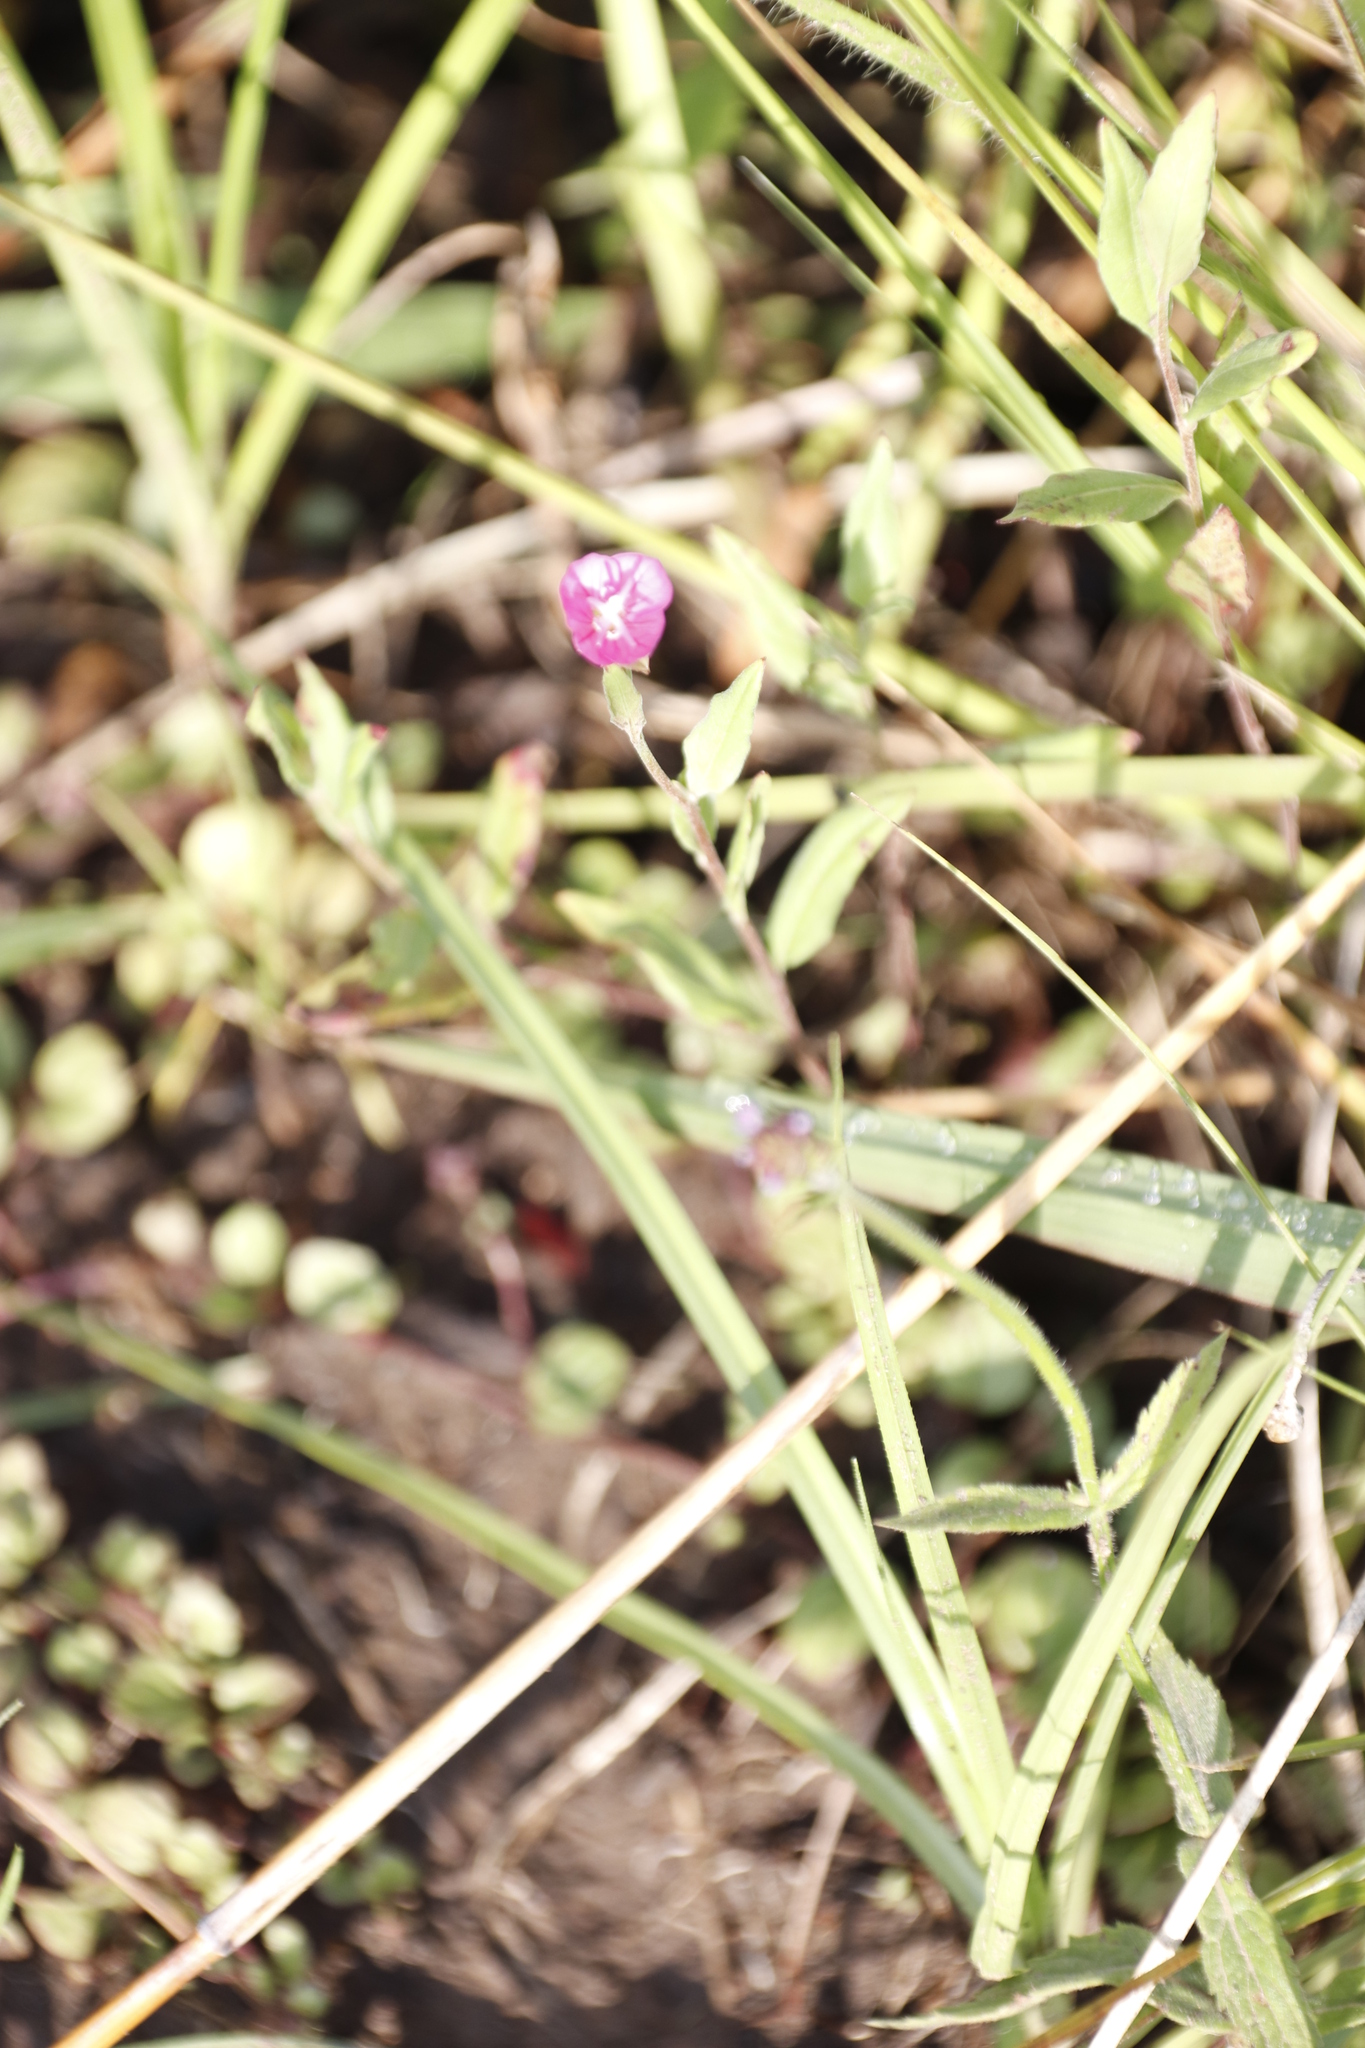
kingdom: Plantae
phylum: Tracheophyta
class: Magnoliopsida
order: Myrtales
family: Onagraceae
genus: Oenothera
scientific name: Oenothera rosea
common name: Rosy evening-primrose
